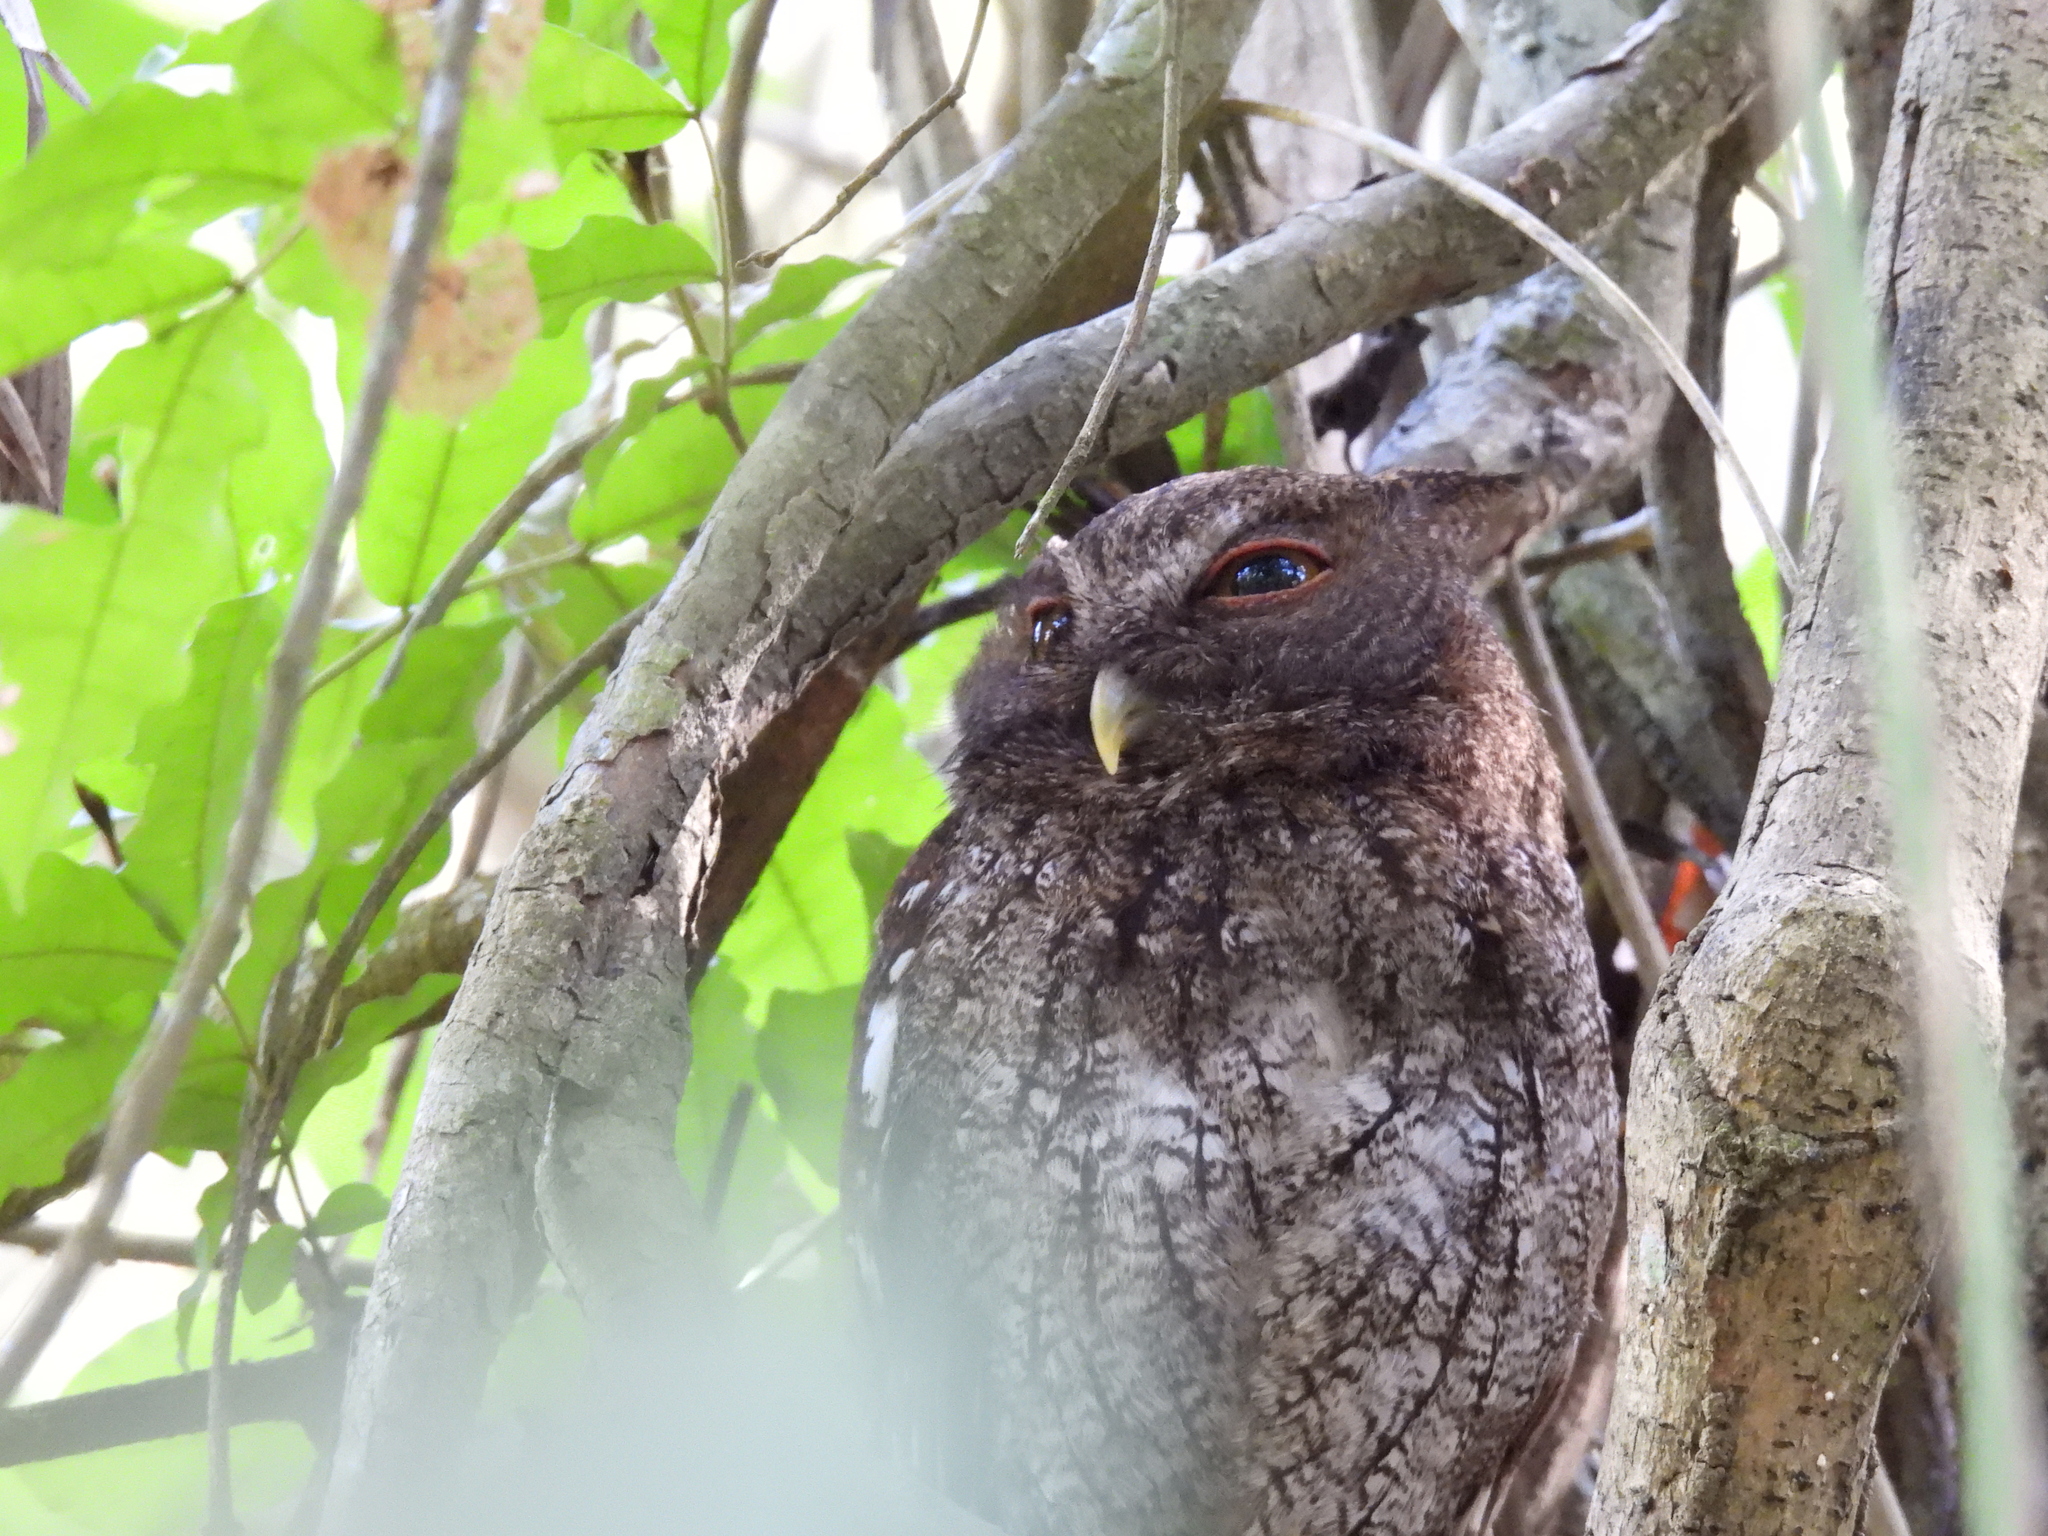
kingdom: Animalia
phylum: Chordata
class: Aves
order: Strigiformes
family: Strigidae
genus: Megascops
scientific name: Megascops centralis
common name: Choco screech owl
